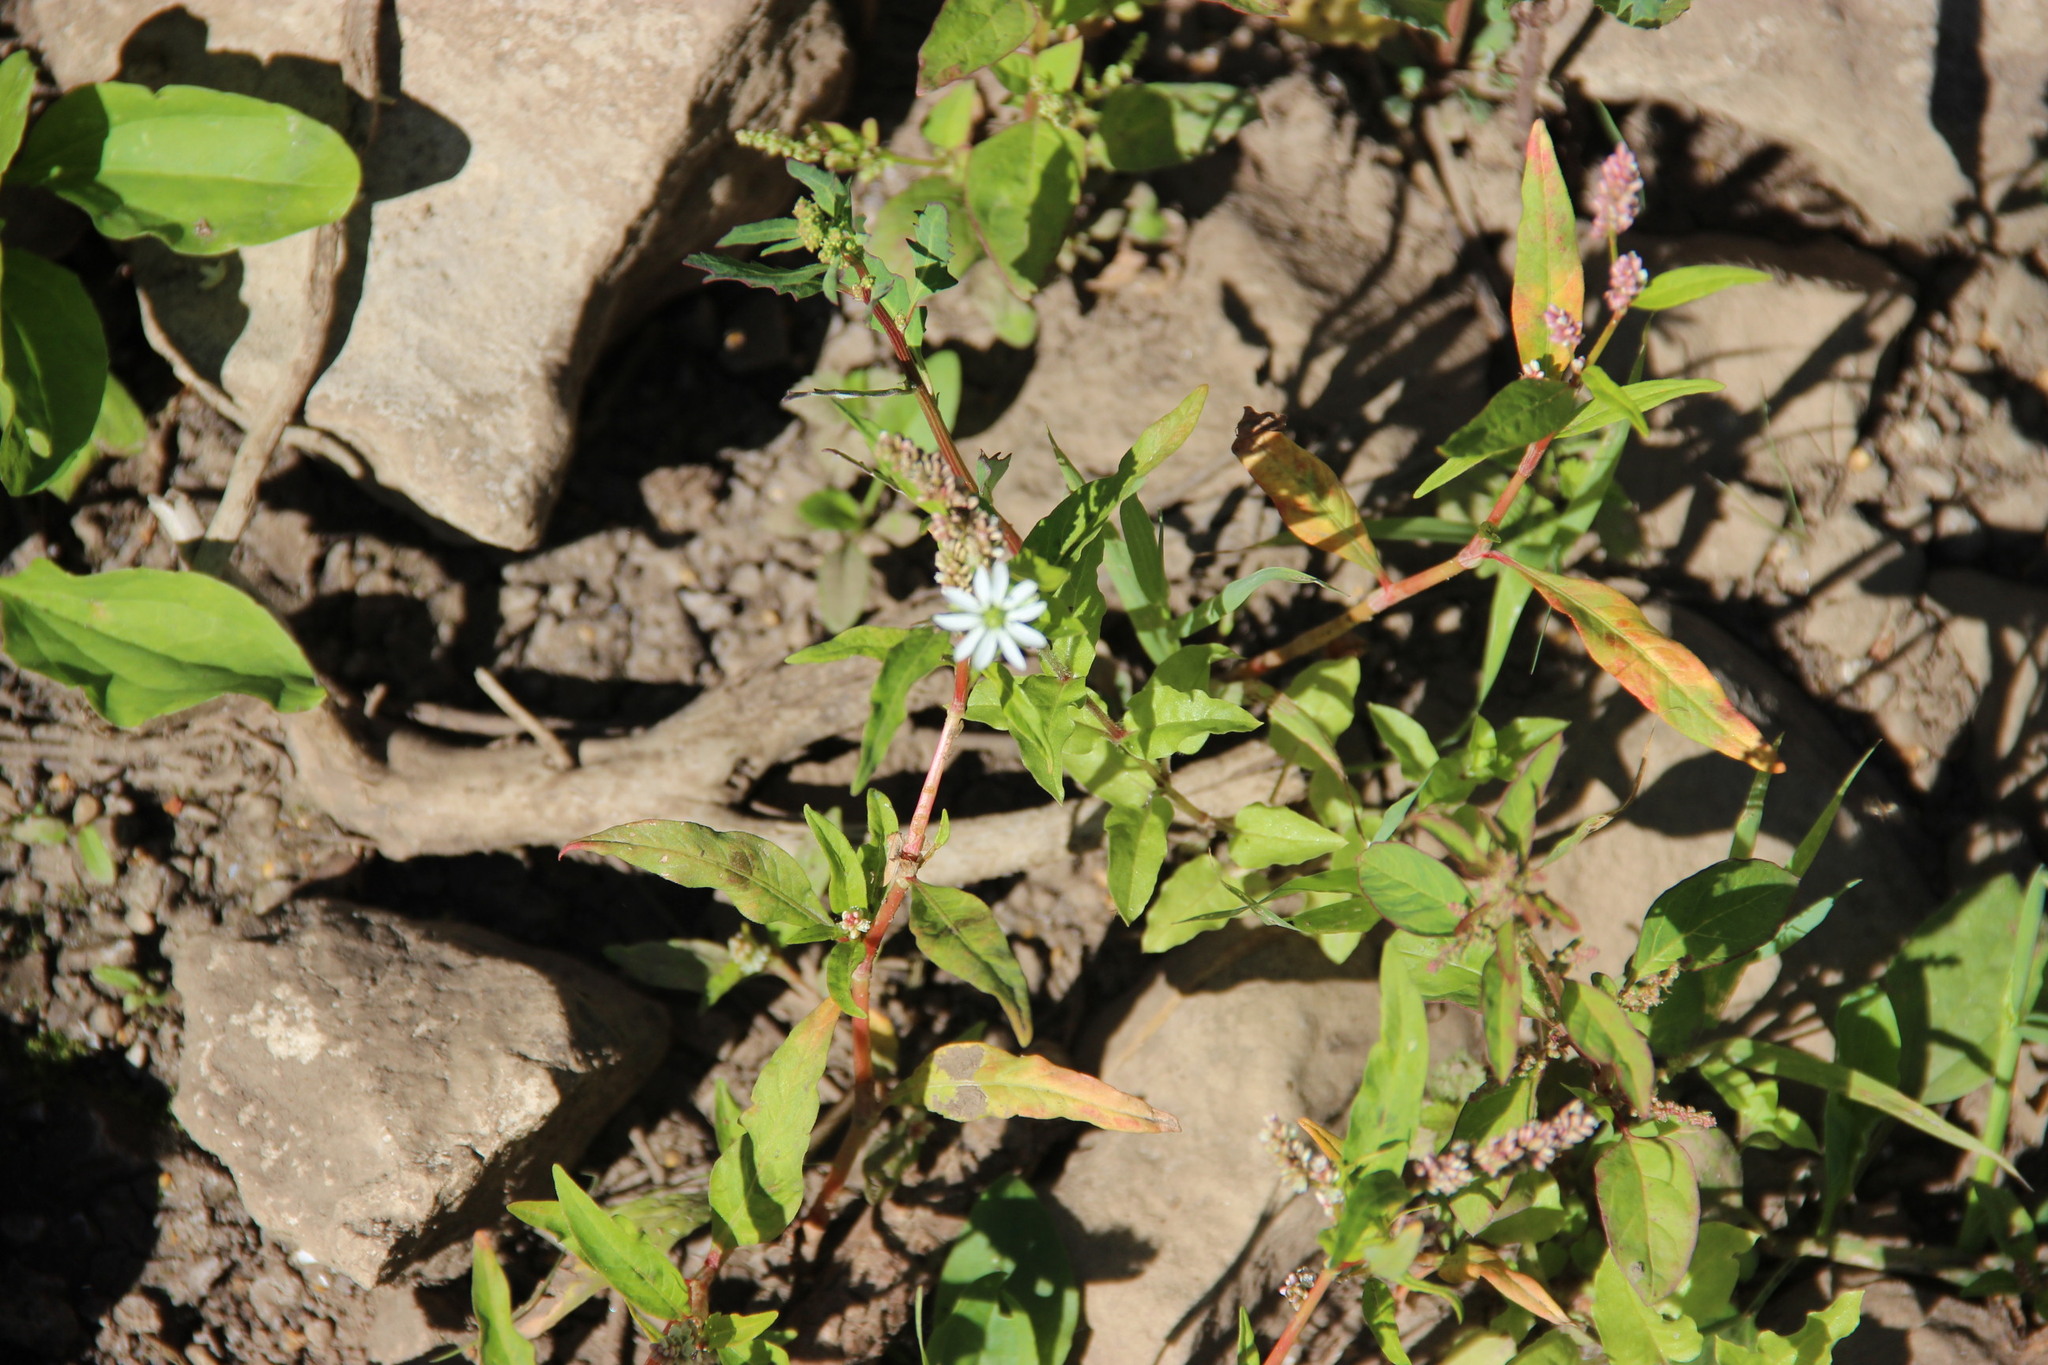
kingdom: Plantae
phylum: Tracheophyta
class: Magnoliopsida
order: Caryophyllales
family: Caryophyllaceae
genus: Stellaria
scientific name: Stellaria aquatica
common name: Water chickweed
